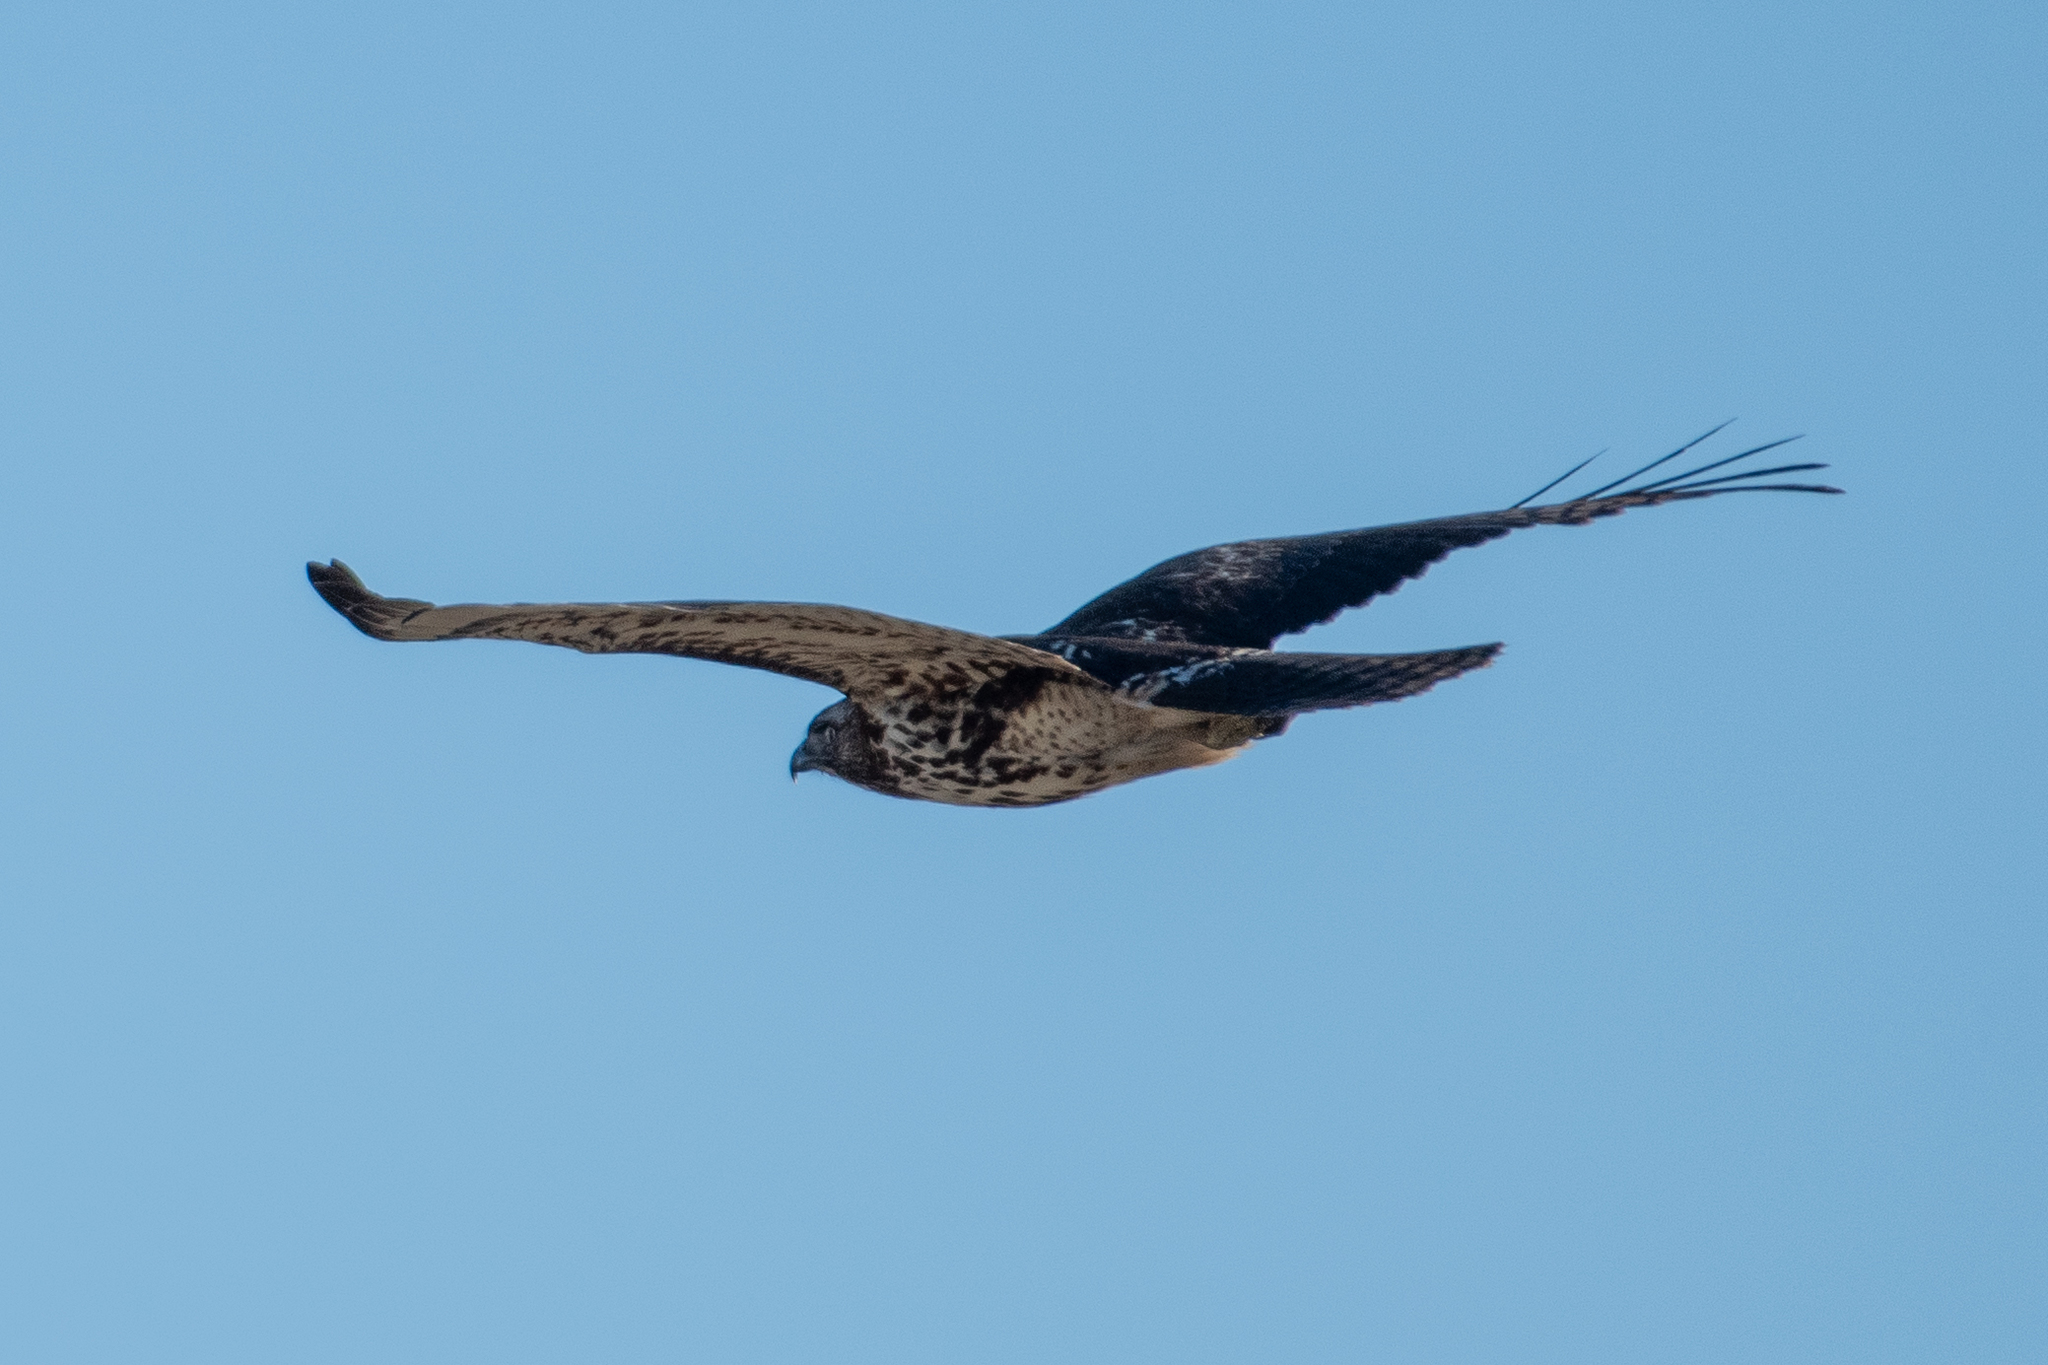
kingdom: Animalia
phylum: Chordata
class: Aves
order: Accipitriformes
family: Accipitridae
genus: Buteo
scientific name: Buteo jamaicensis
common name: Red-tailed hawk
